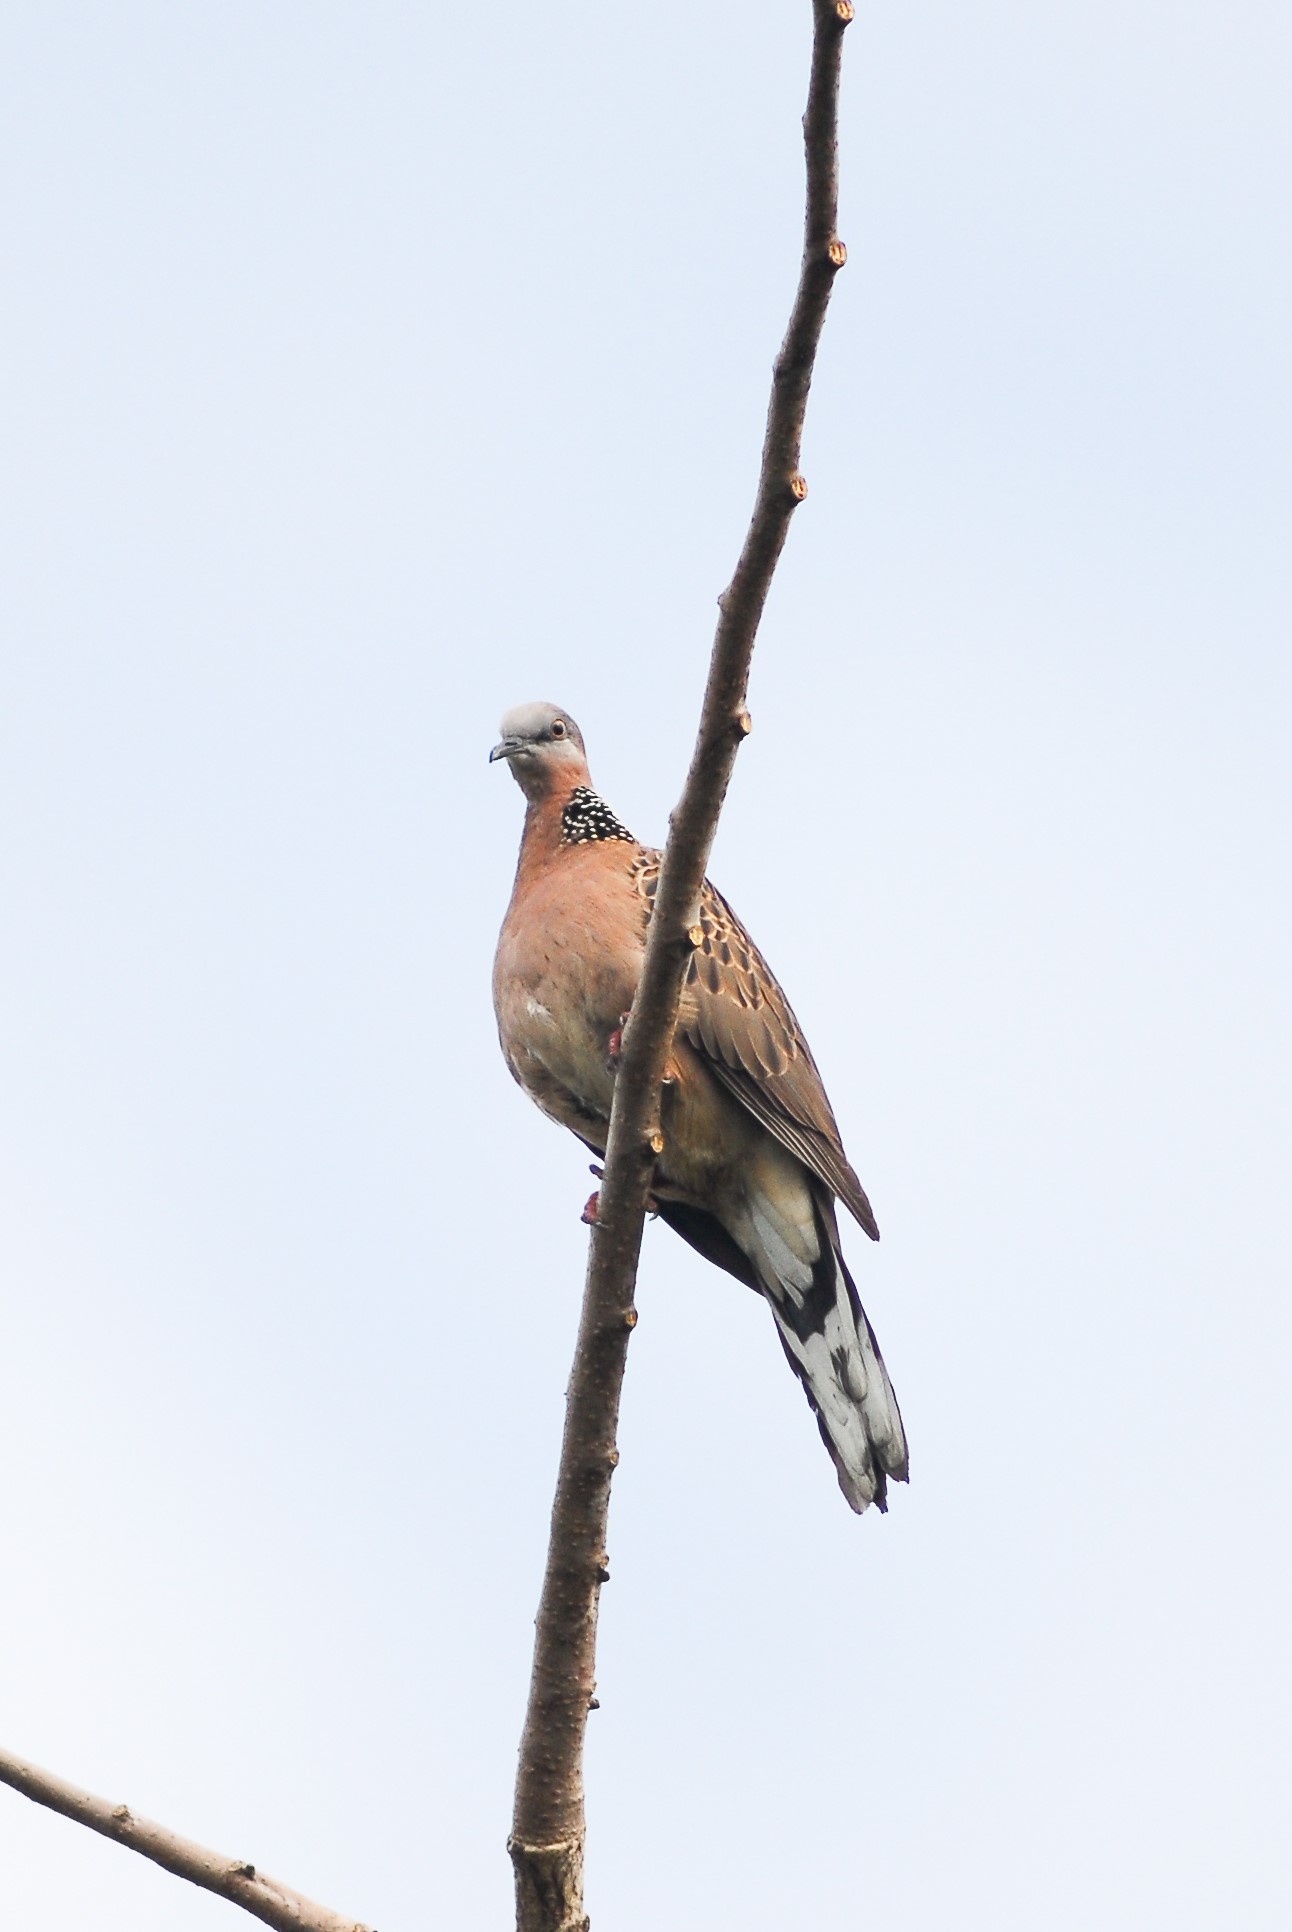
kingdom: Animalia
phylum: Chordata
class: Aves
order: Columbiformes
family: Columbidae
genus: Spilopelia
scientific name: Spilopelia chinensis
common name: Spotted dove
